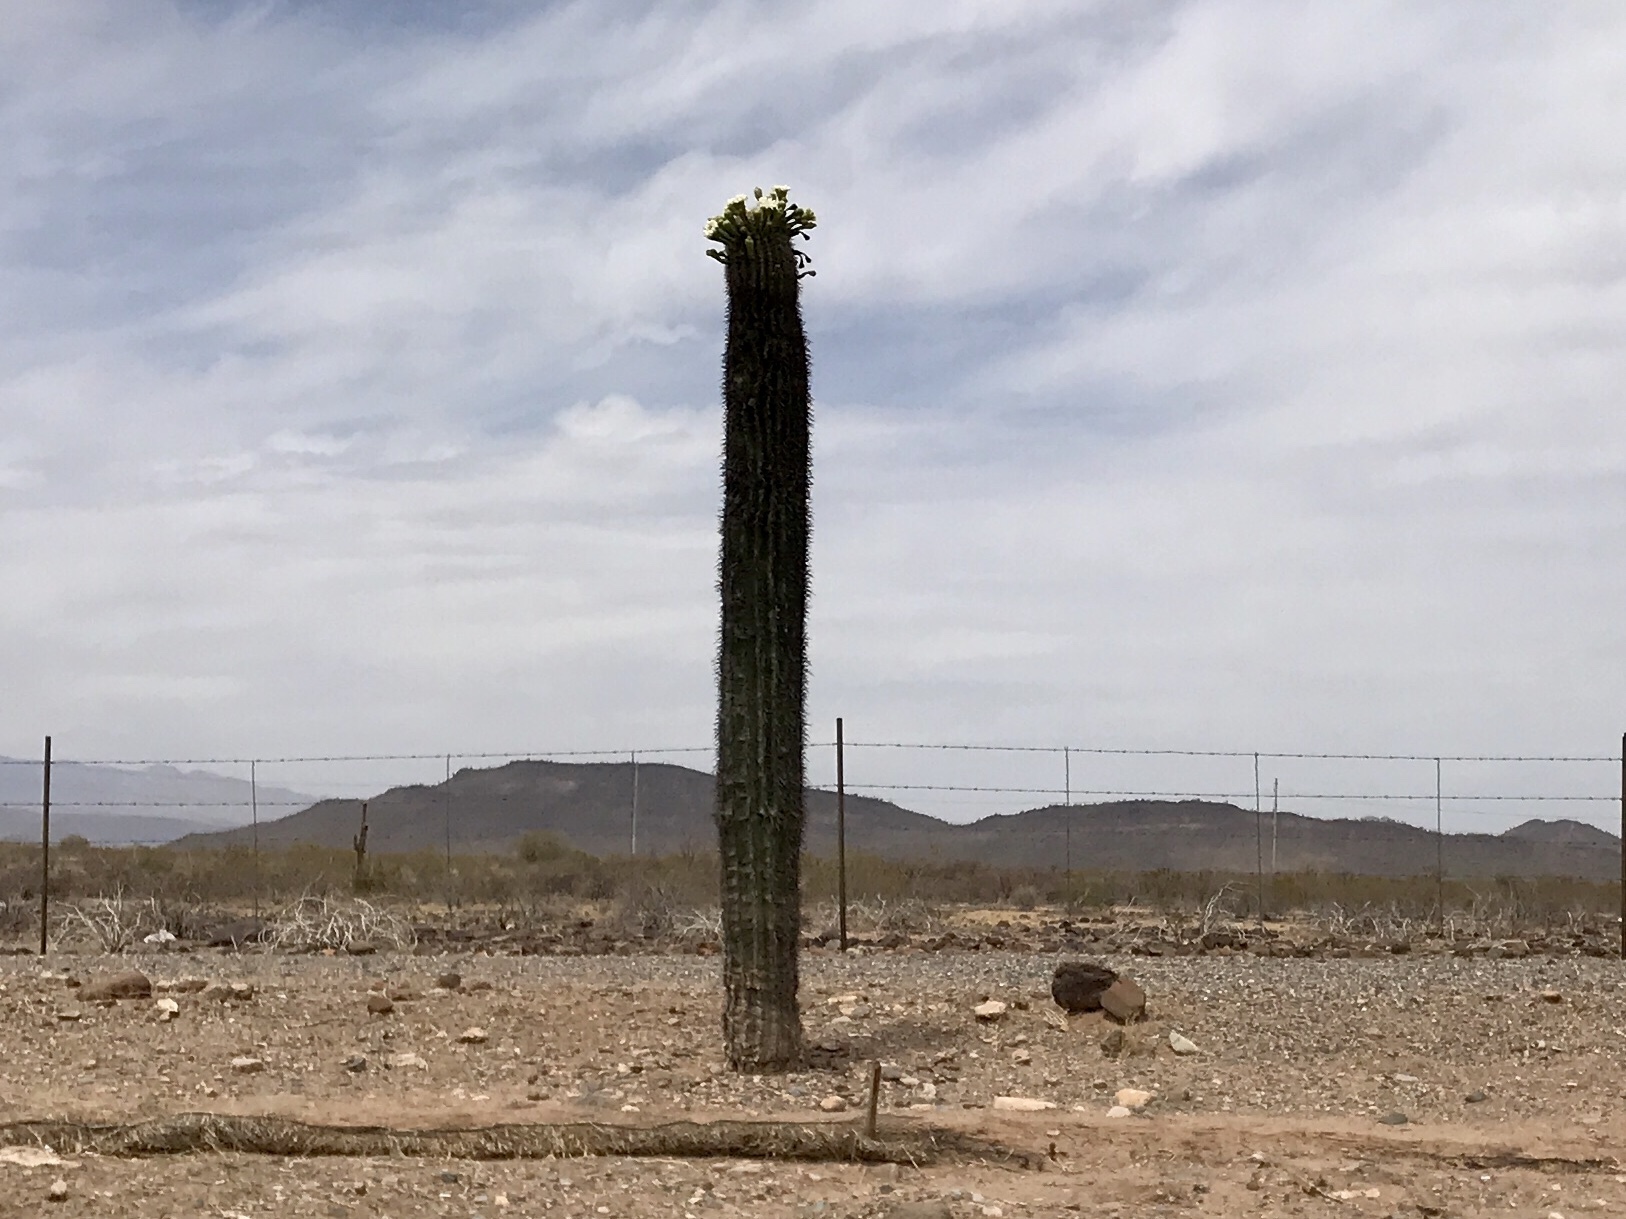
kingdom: Plantae
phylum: Tracheophyta
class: Magnoliopsida
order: Caryophyllales
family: Cactaceae
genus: Carnegiea
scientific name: Carnegiea gigantea
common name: Saguaro
